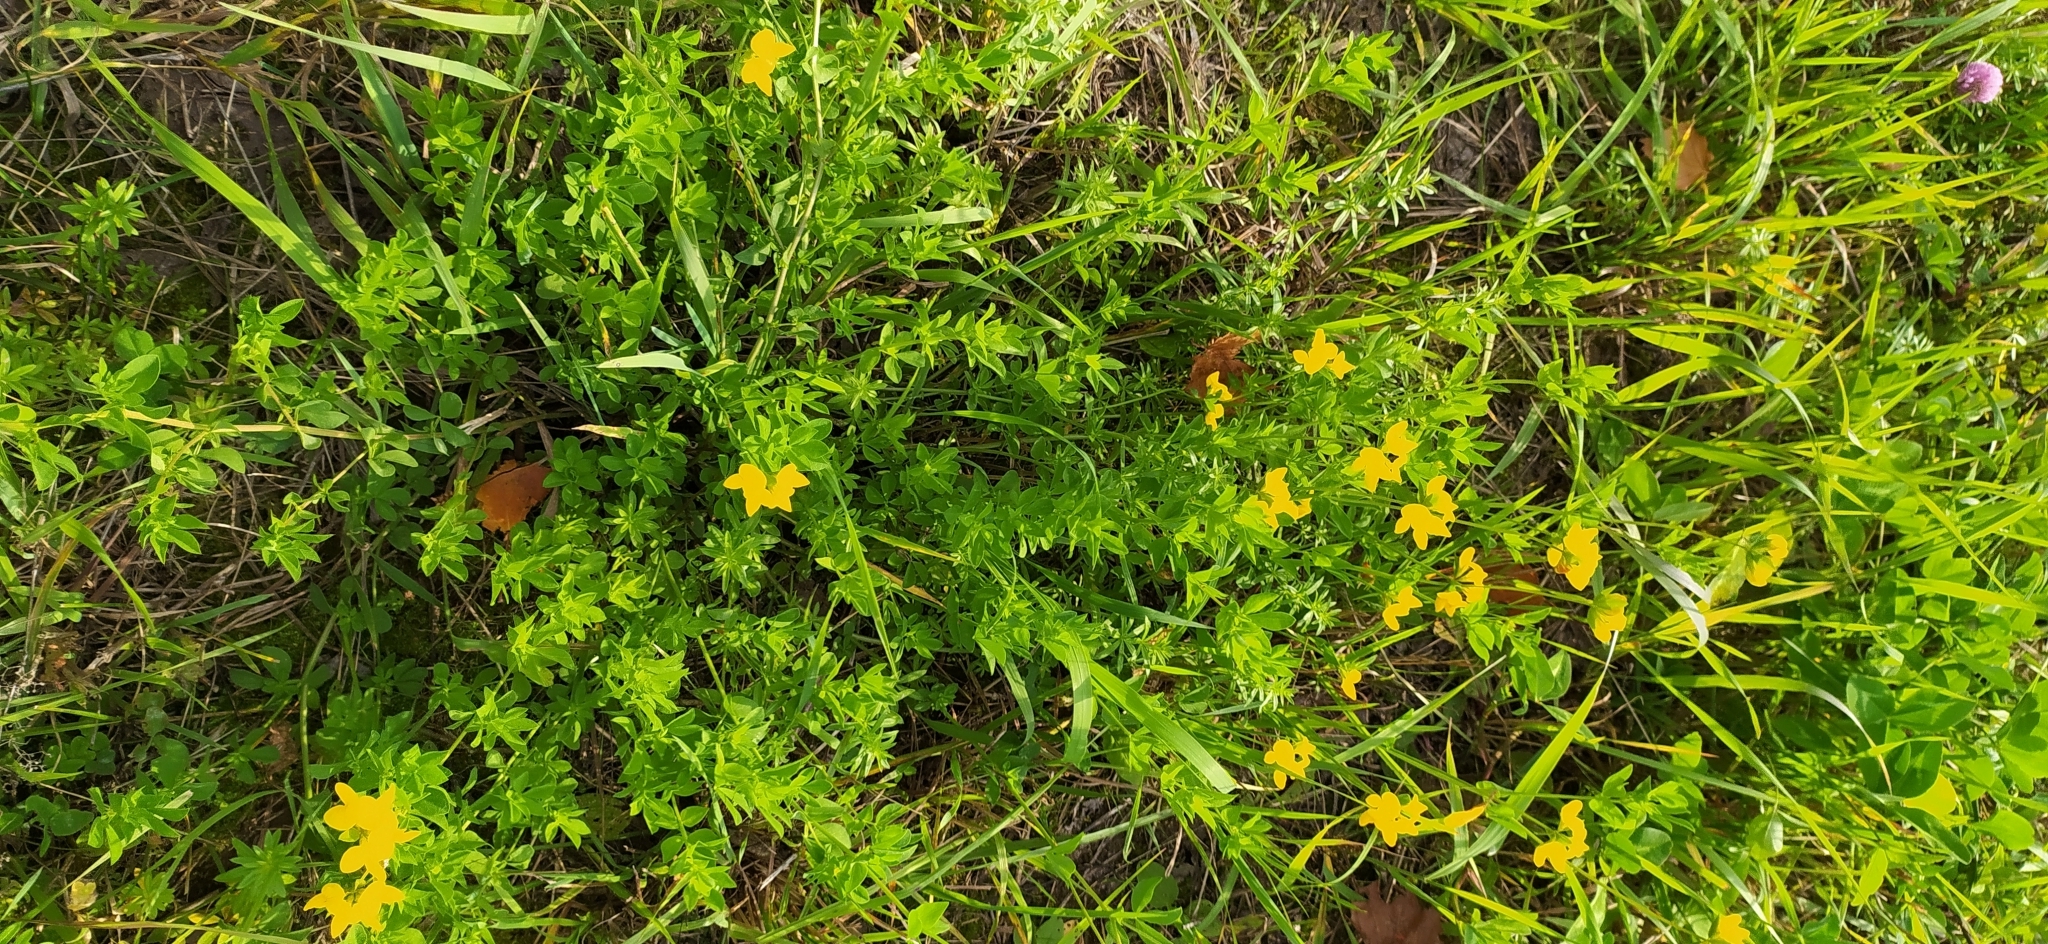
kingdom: Plantae
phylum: Tracheophyta
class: Magnoliopsida
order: Fabales
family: Fabaceae
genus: Lotus
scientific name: Lotus corniculatus
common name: Common bird's-foot-trefoil
